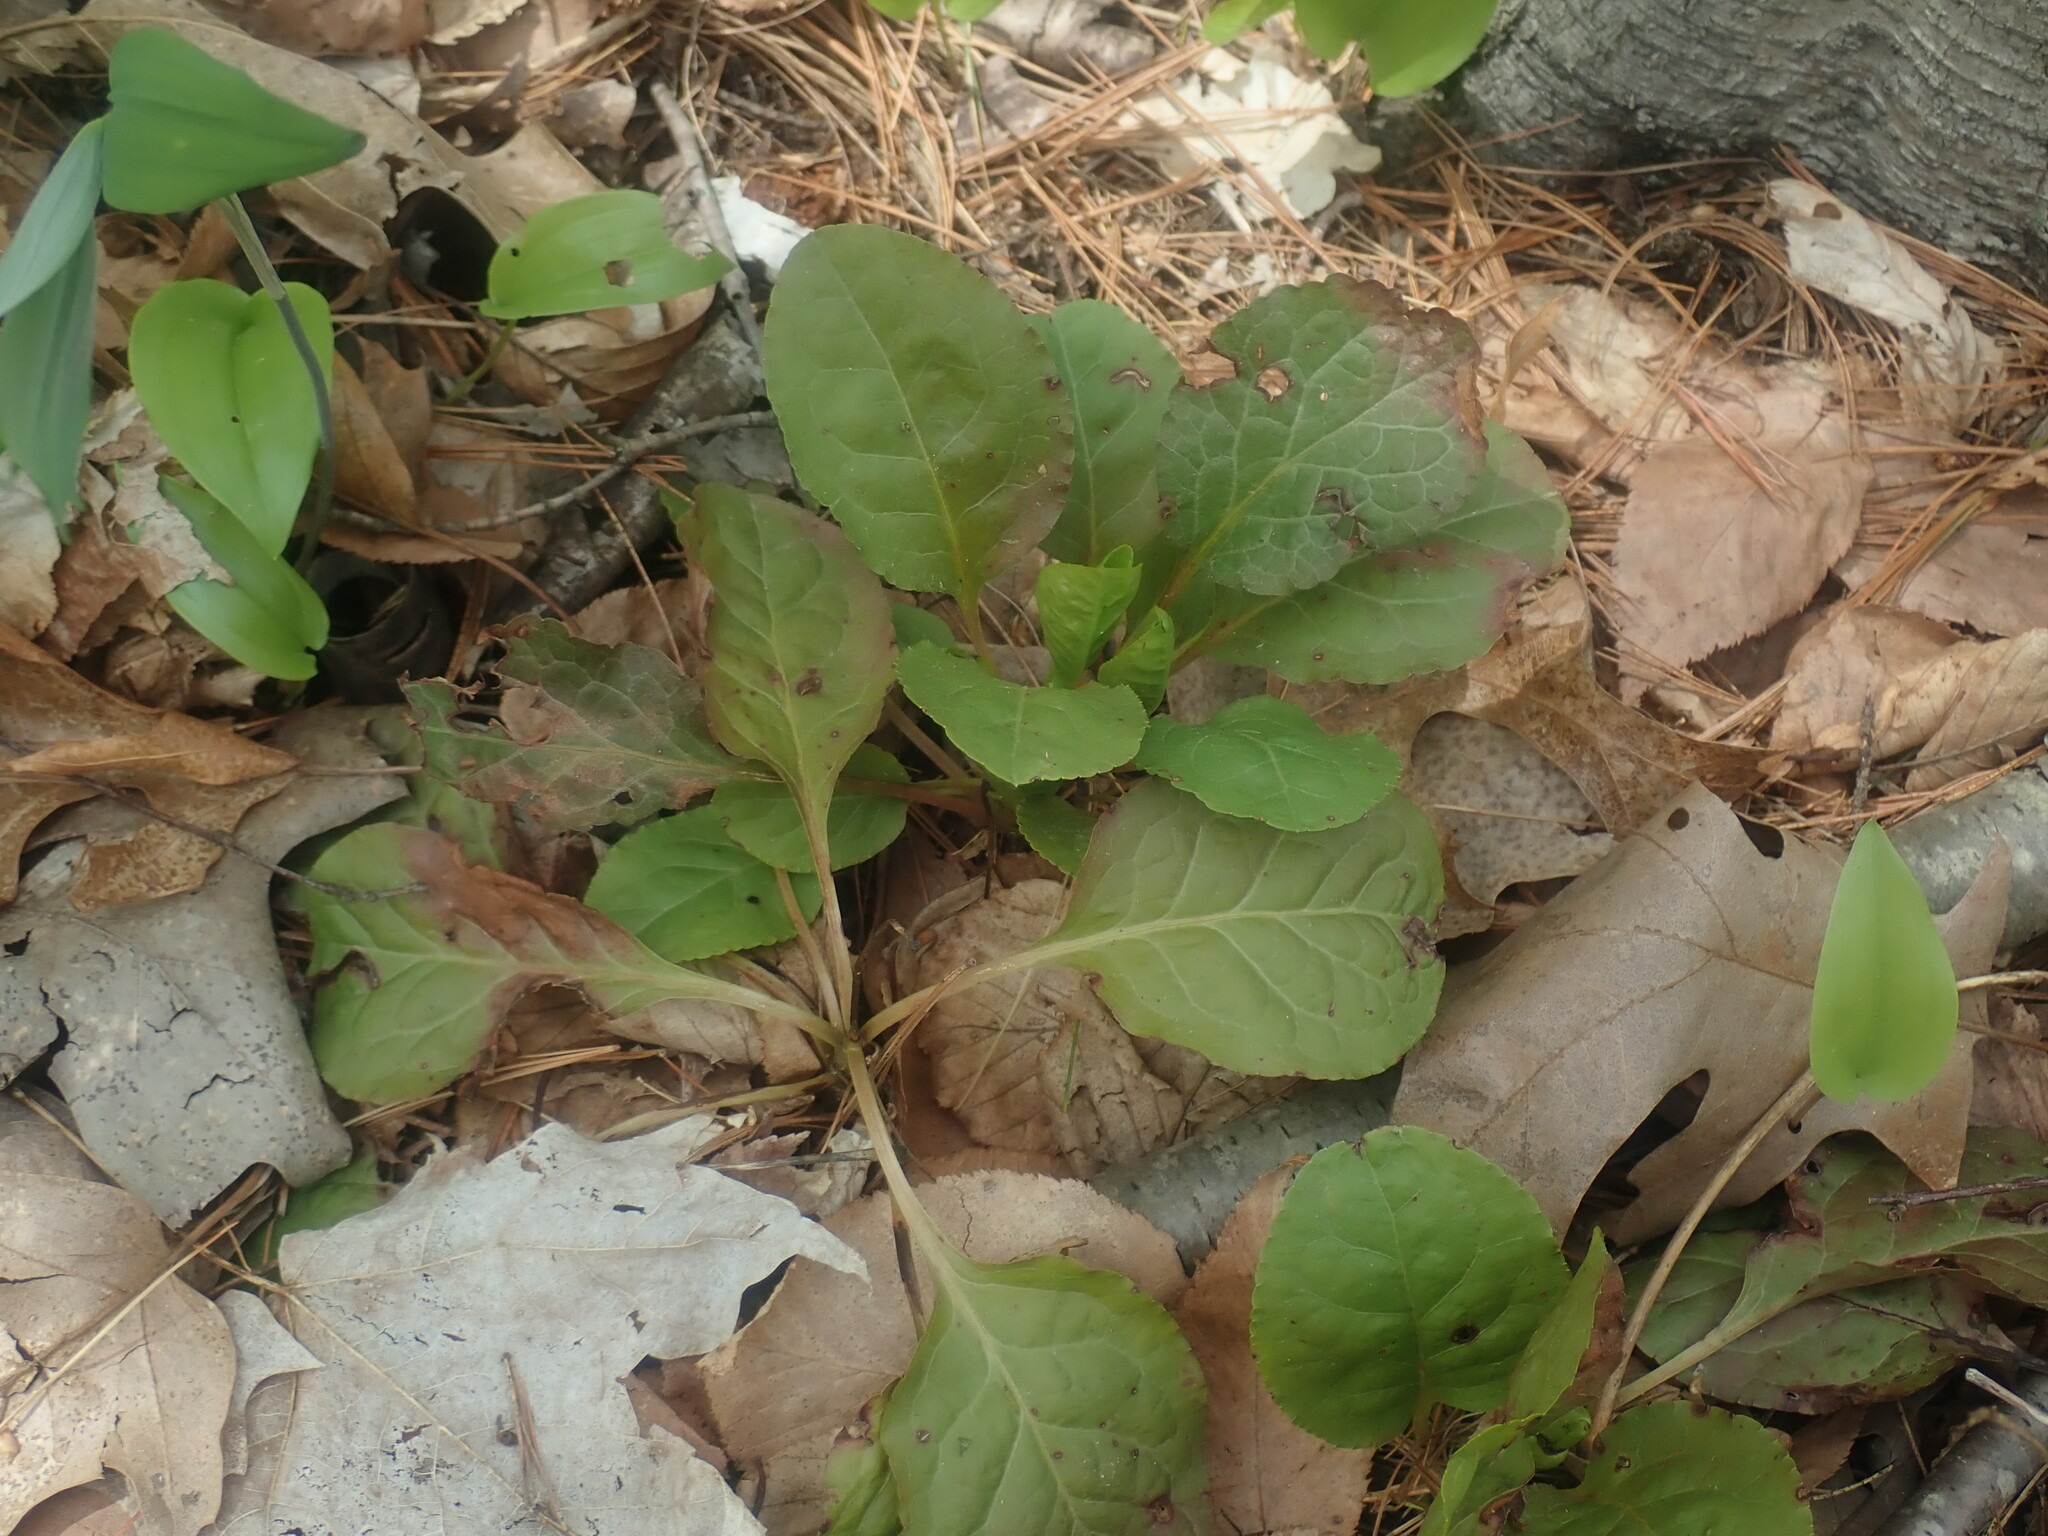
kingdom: Plantae
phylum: Tracheophyta
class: Magnoliopsida
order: Ericales
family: Ericaceae
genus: Pyrola
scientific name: Pyrola elliptica
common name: Shinleaf
